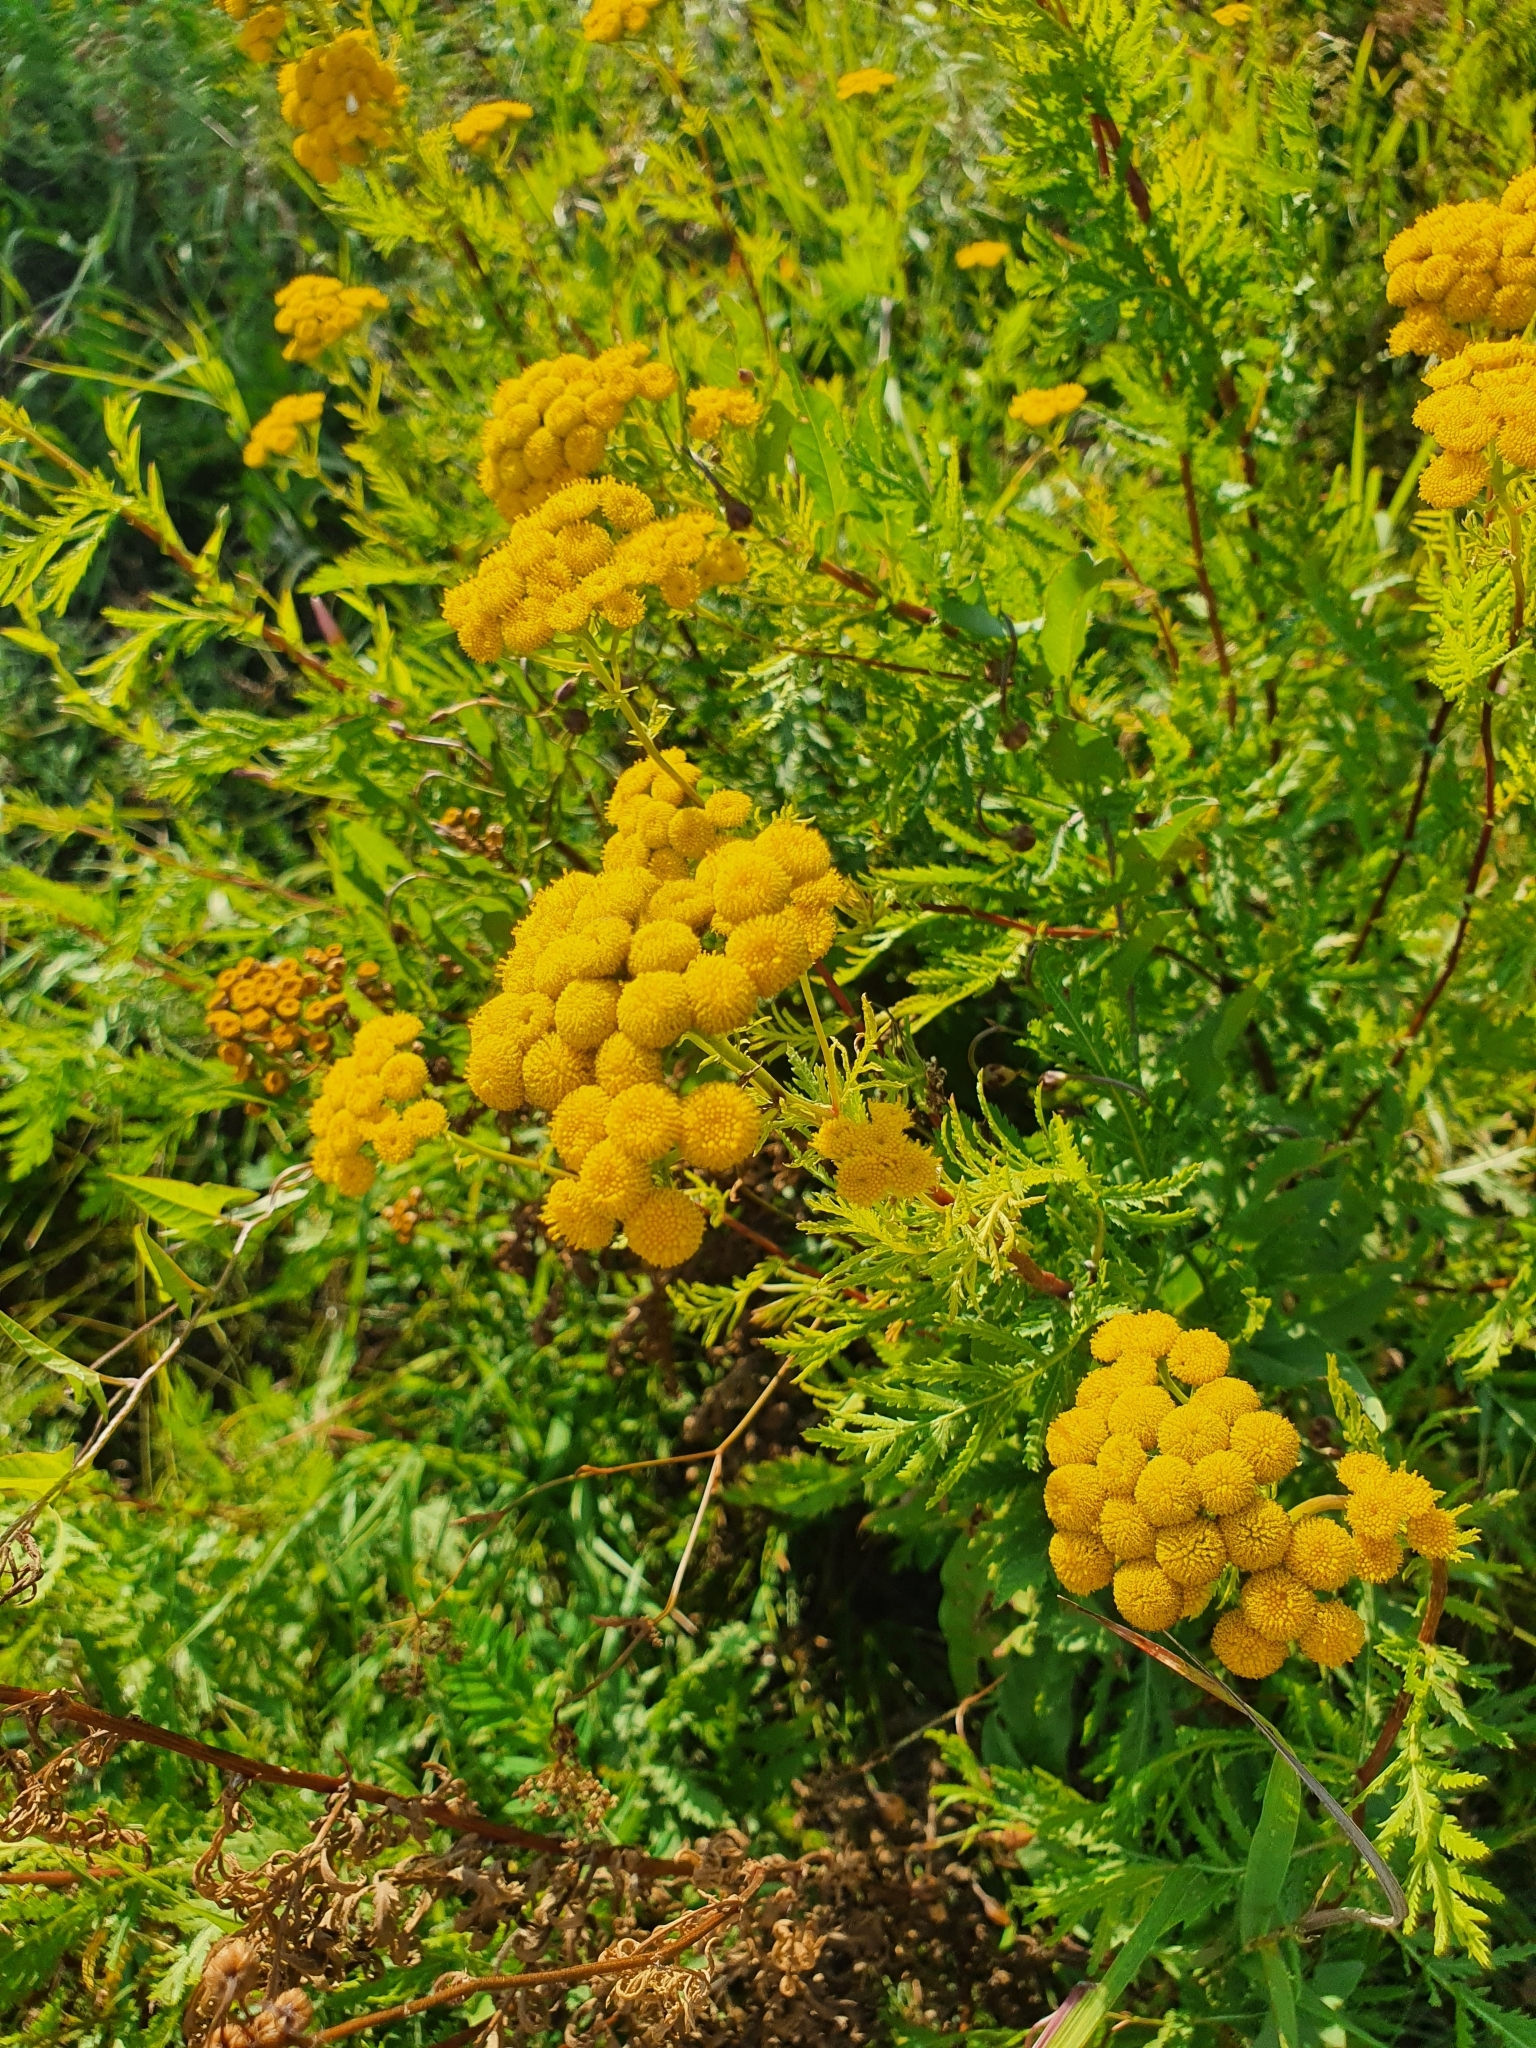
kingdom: Plantae
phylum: Tracheophyta
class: Magnoliopsida
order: Asterales
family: Asteraceae
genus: Tanacetum
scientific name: Tanacetum vulgare
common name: Common tansy
